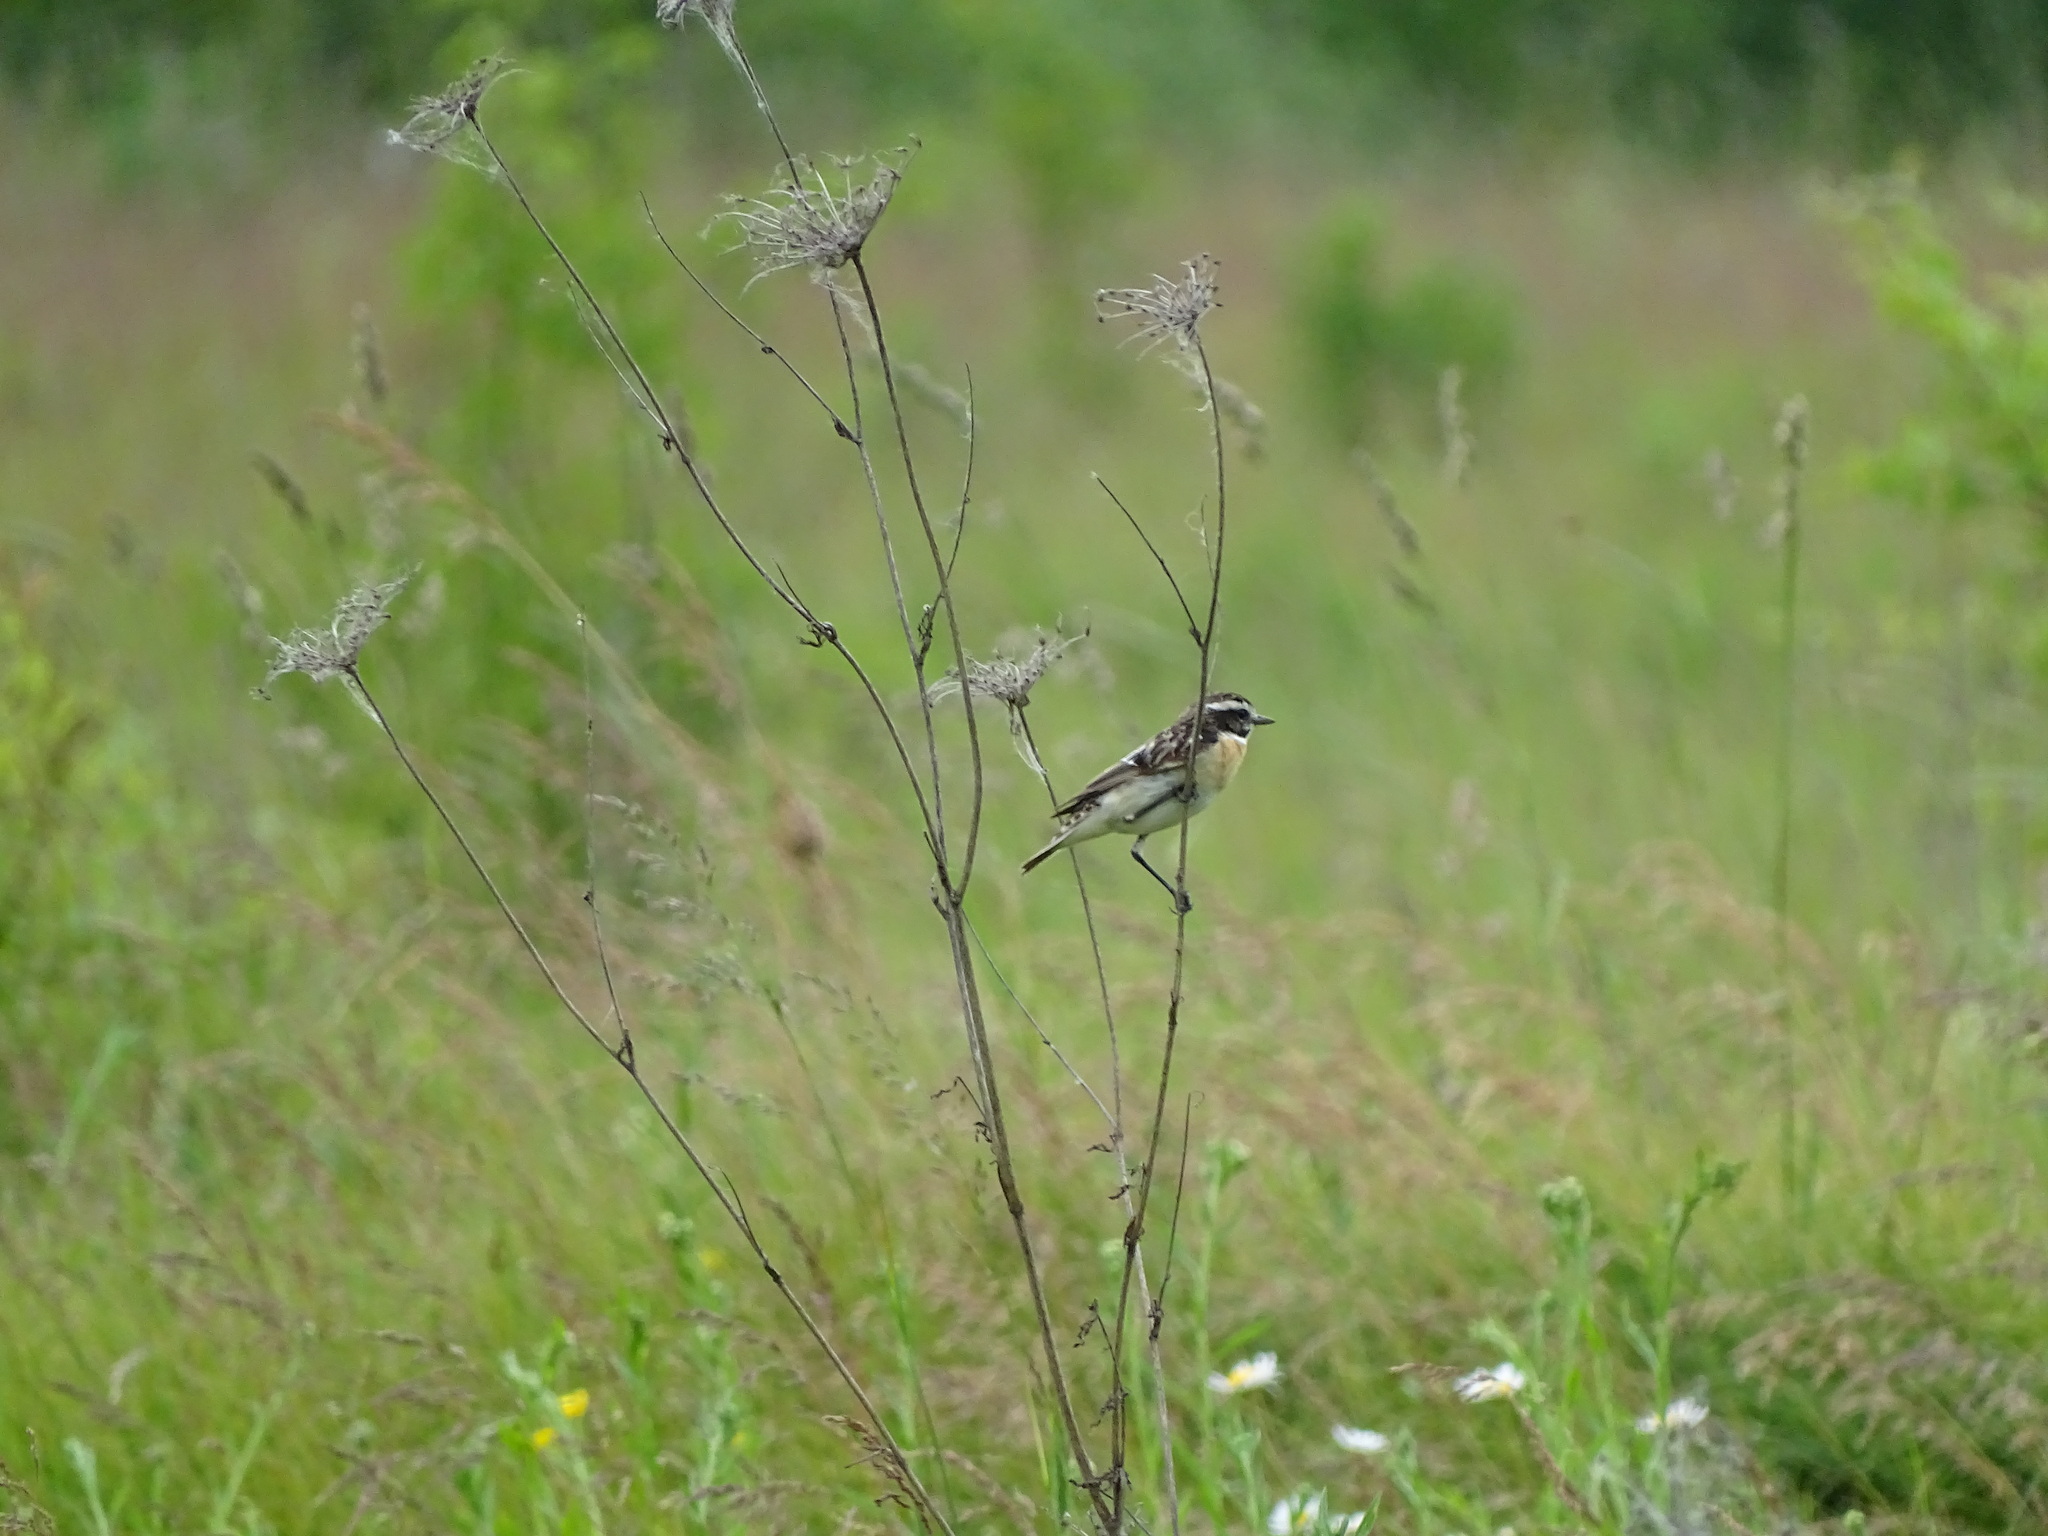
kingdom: Animalia
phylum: Chordata
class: Aves
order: Passeriformes
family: Muscicapidae
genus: Saxicola
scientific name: Saxicola rubetra
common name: Whinchat
